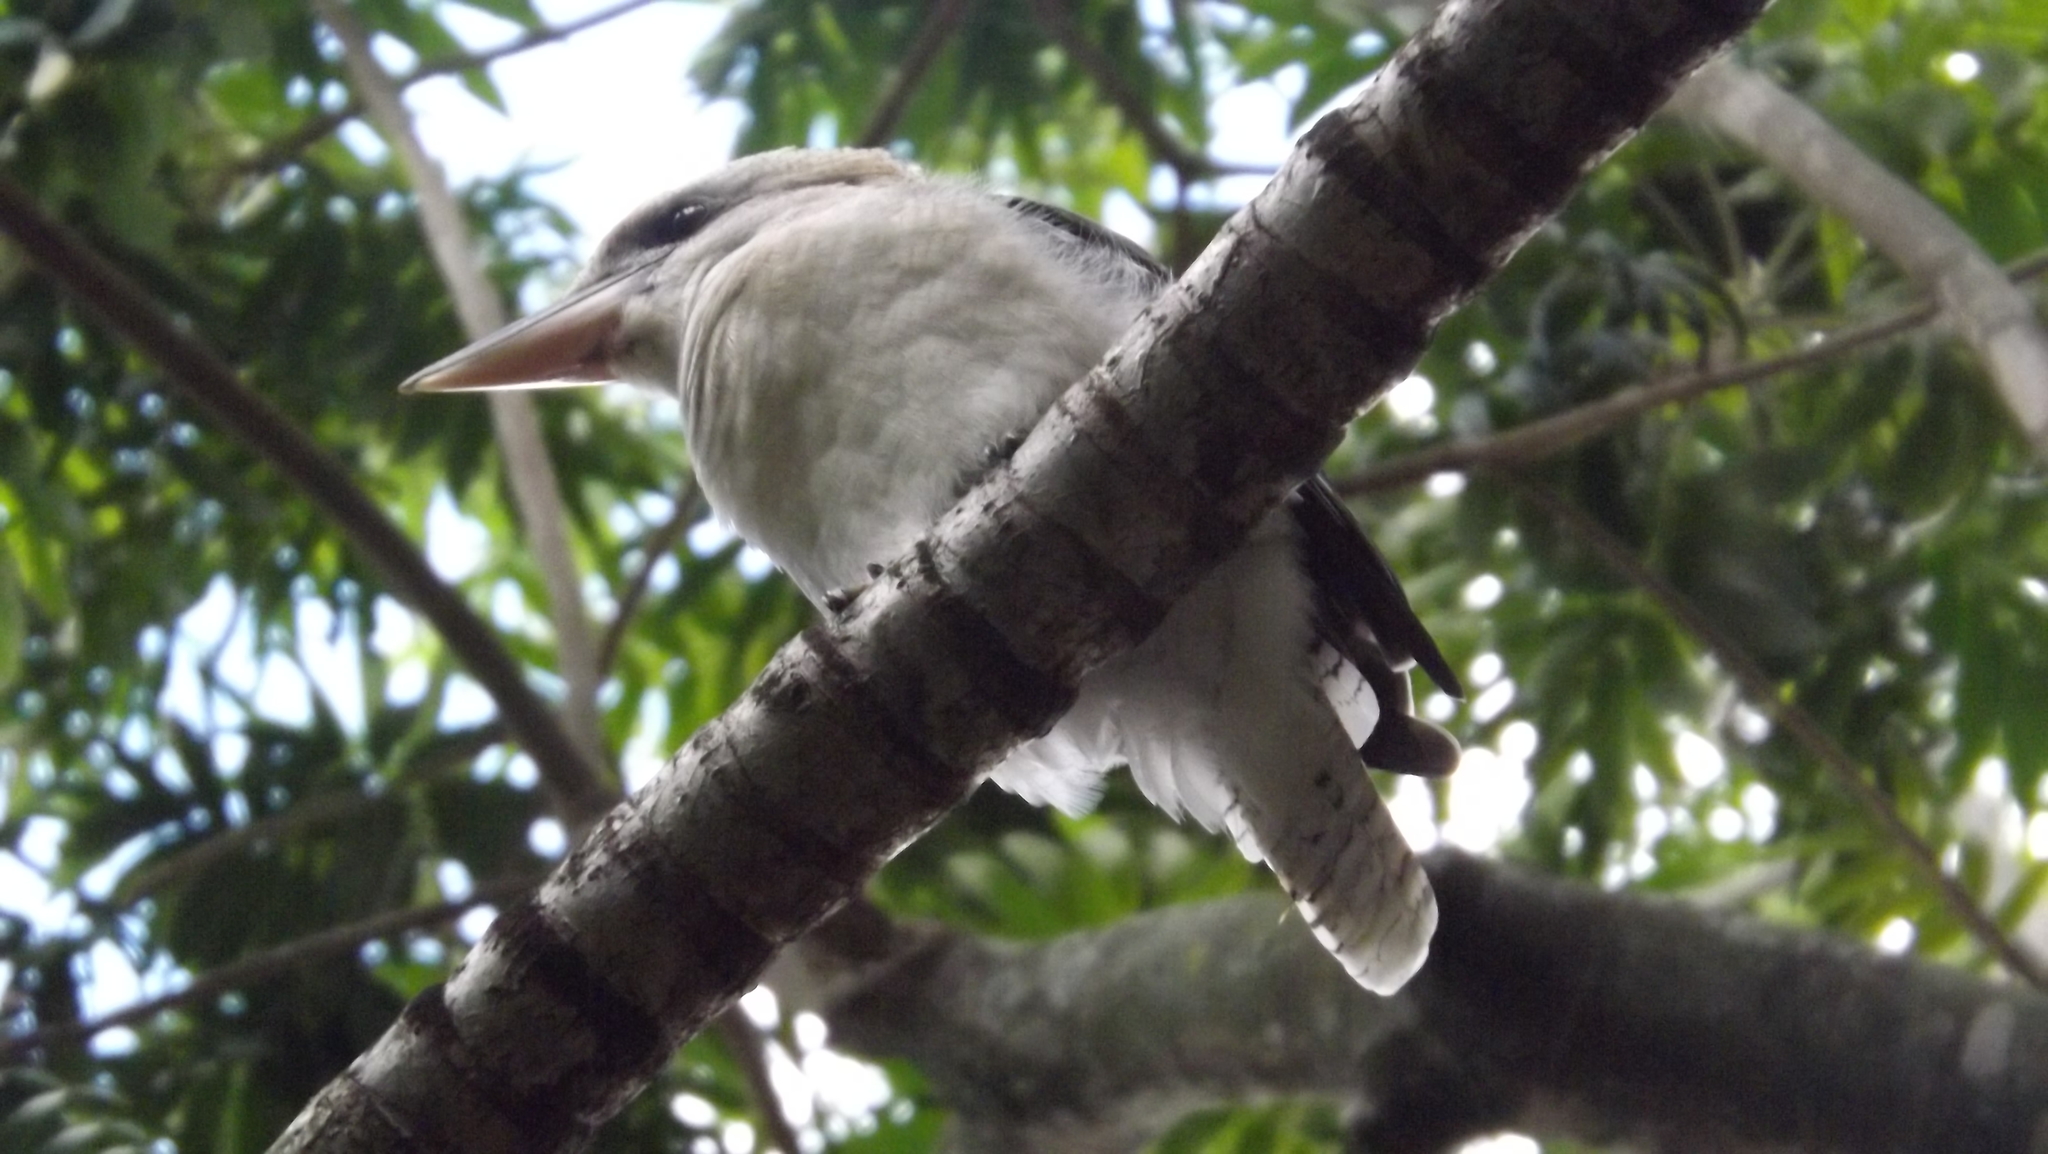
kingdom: Animalia
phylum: Chordata
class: Aves
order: Coraciiformes
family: Alcedinidae
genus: Dacelo
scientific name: Dacelo novaeguineae
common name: Laughing kookaburra
